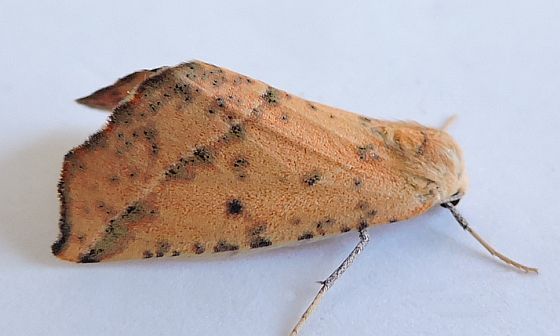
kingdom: Animalia
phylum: Arthropoda
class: Insecta
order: Lepidoptera
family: Geometridae
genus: Sicya
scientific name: Sicya morsicaria
